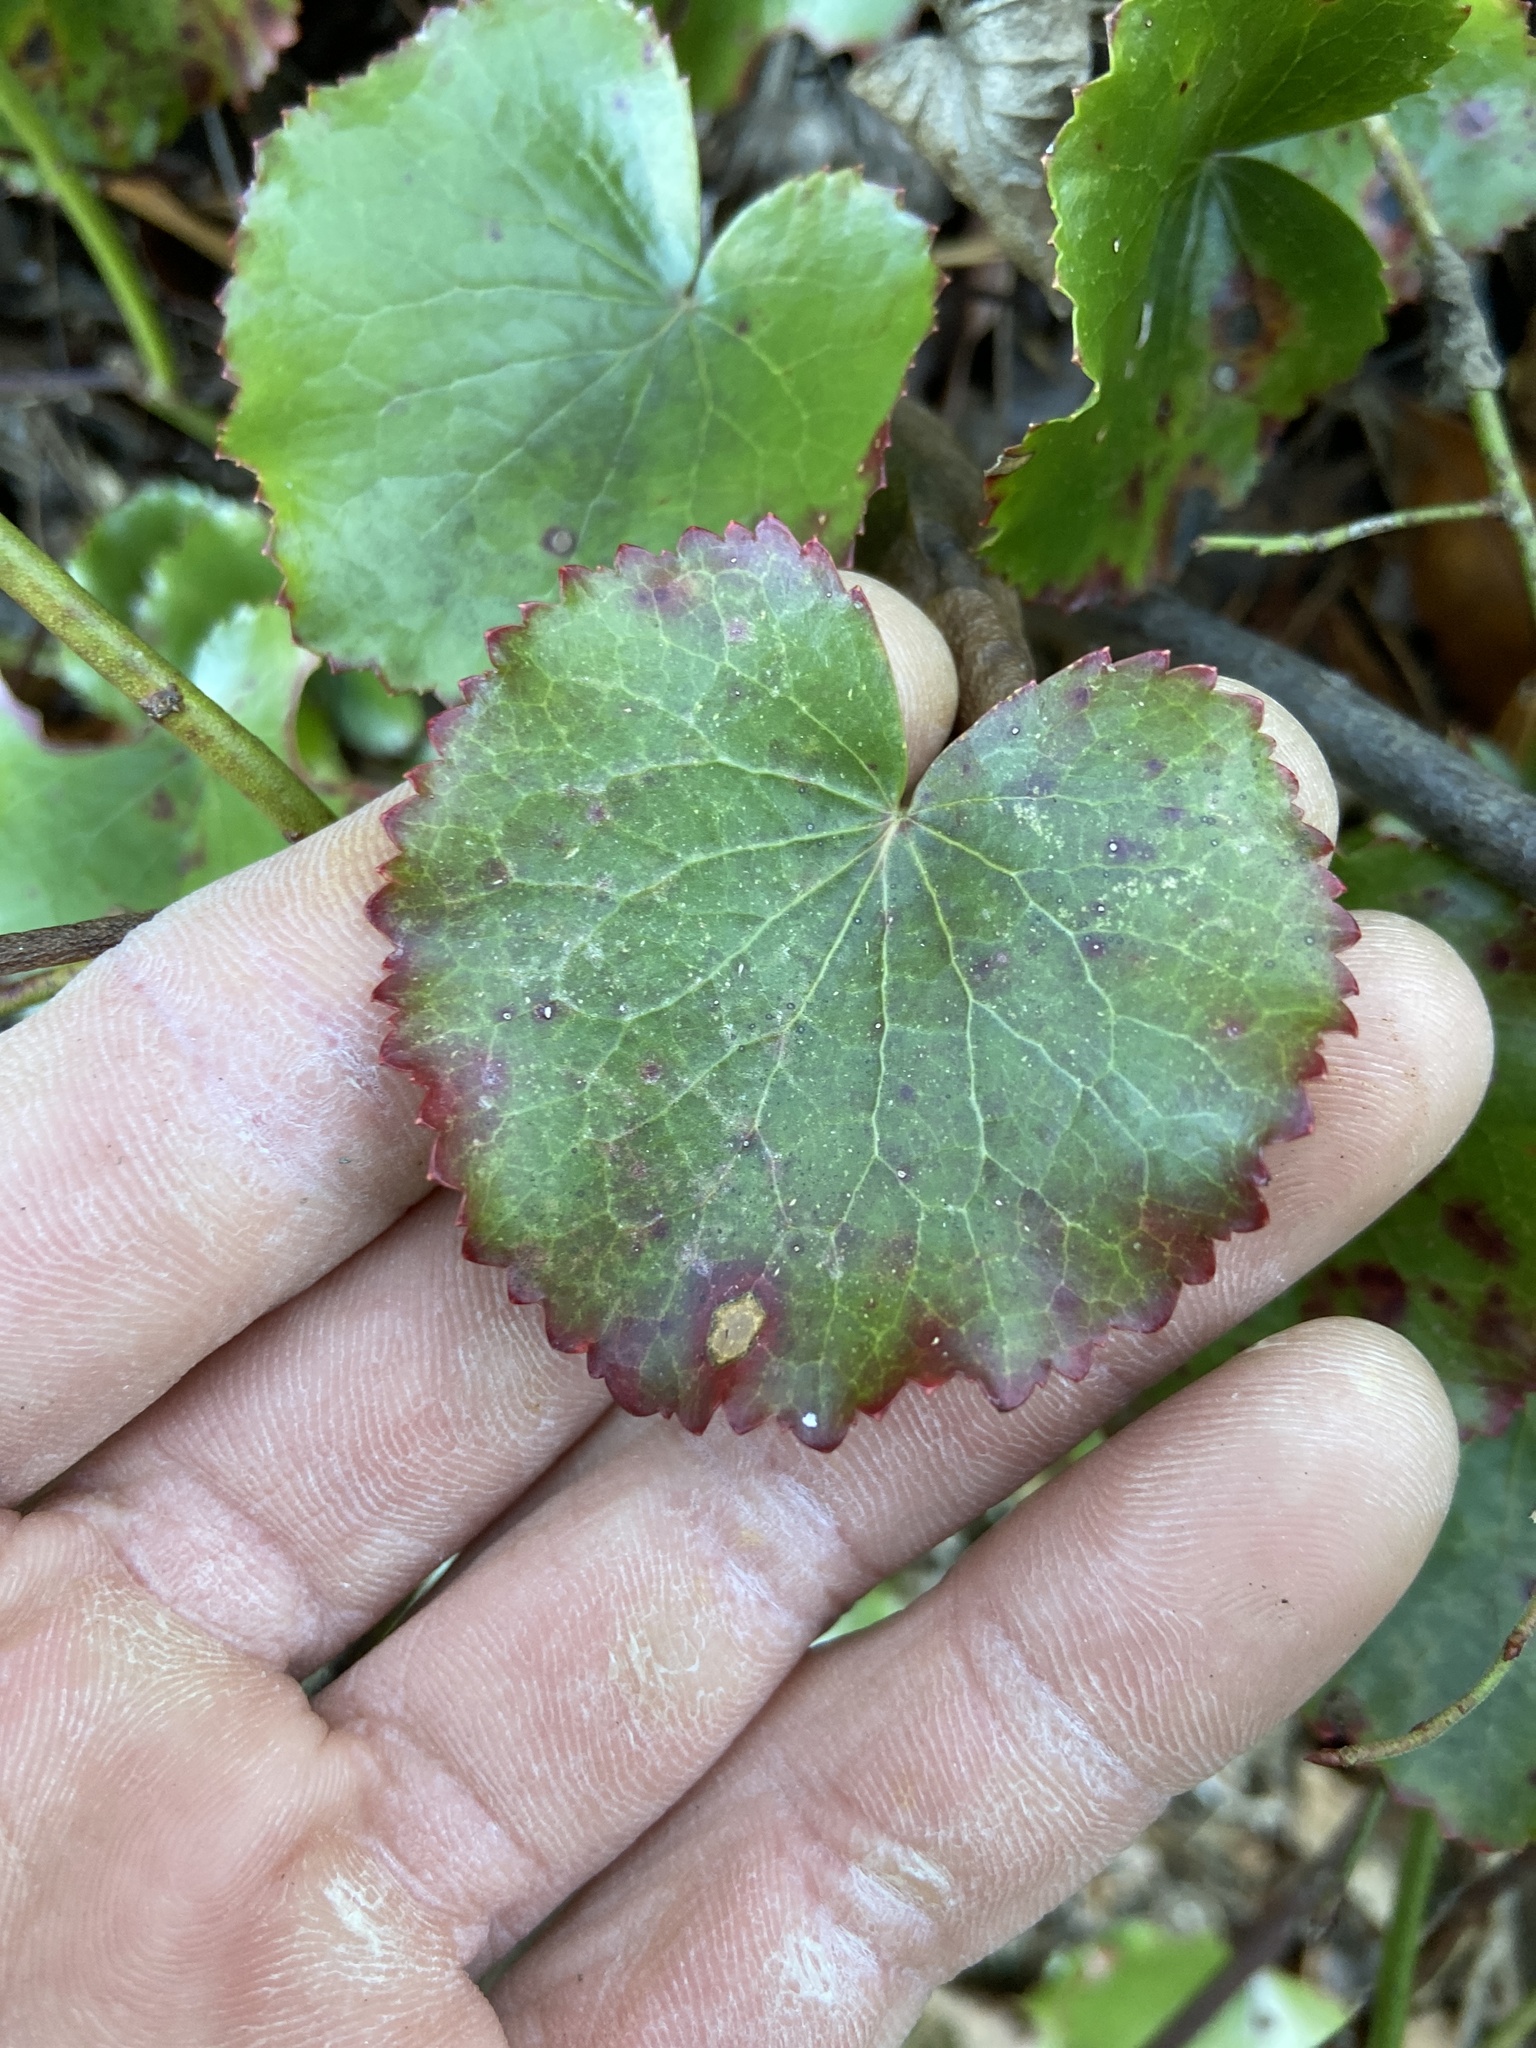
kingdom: Plantae
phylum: Tracheophyta
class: Magnoliopsida
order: Ericales
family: Diapensiaceae
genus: Galax
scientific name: Galax urceolata
